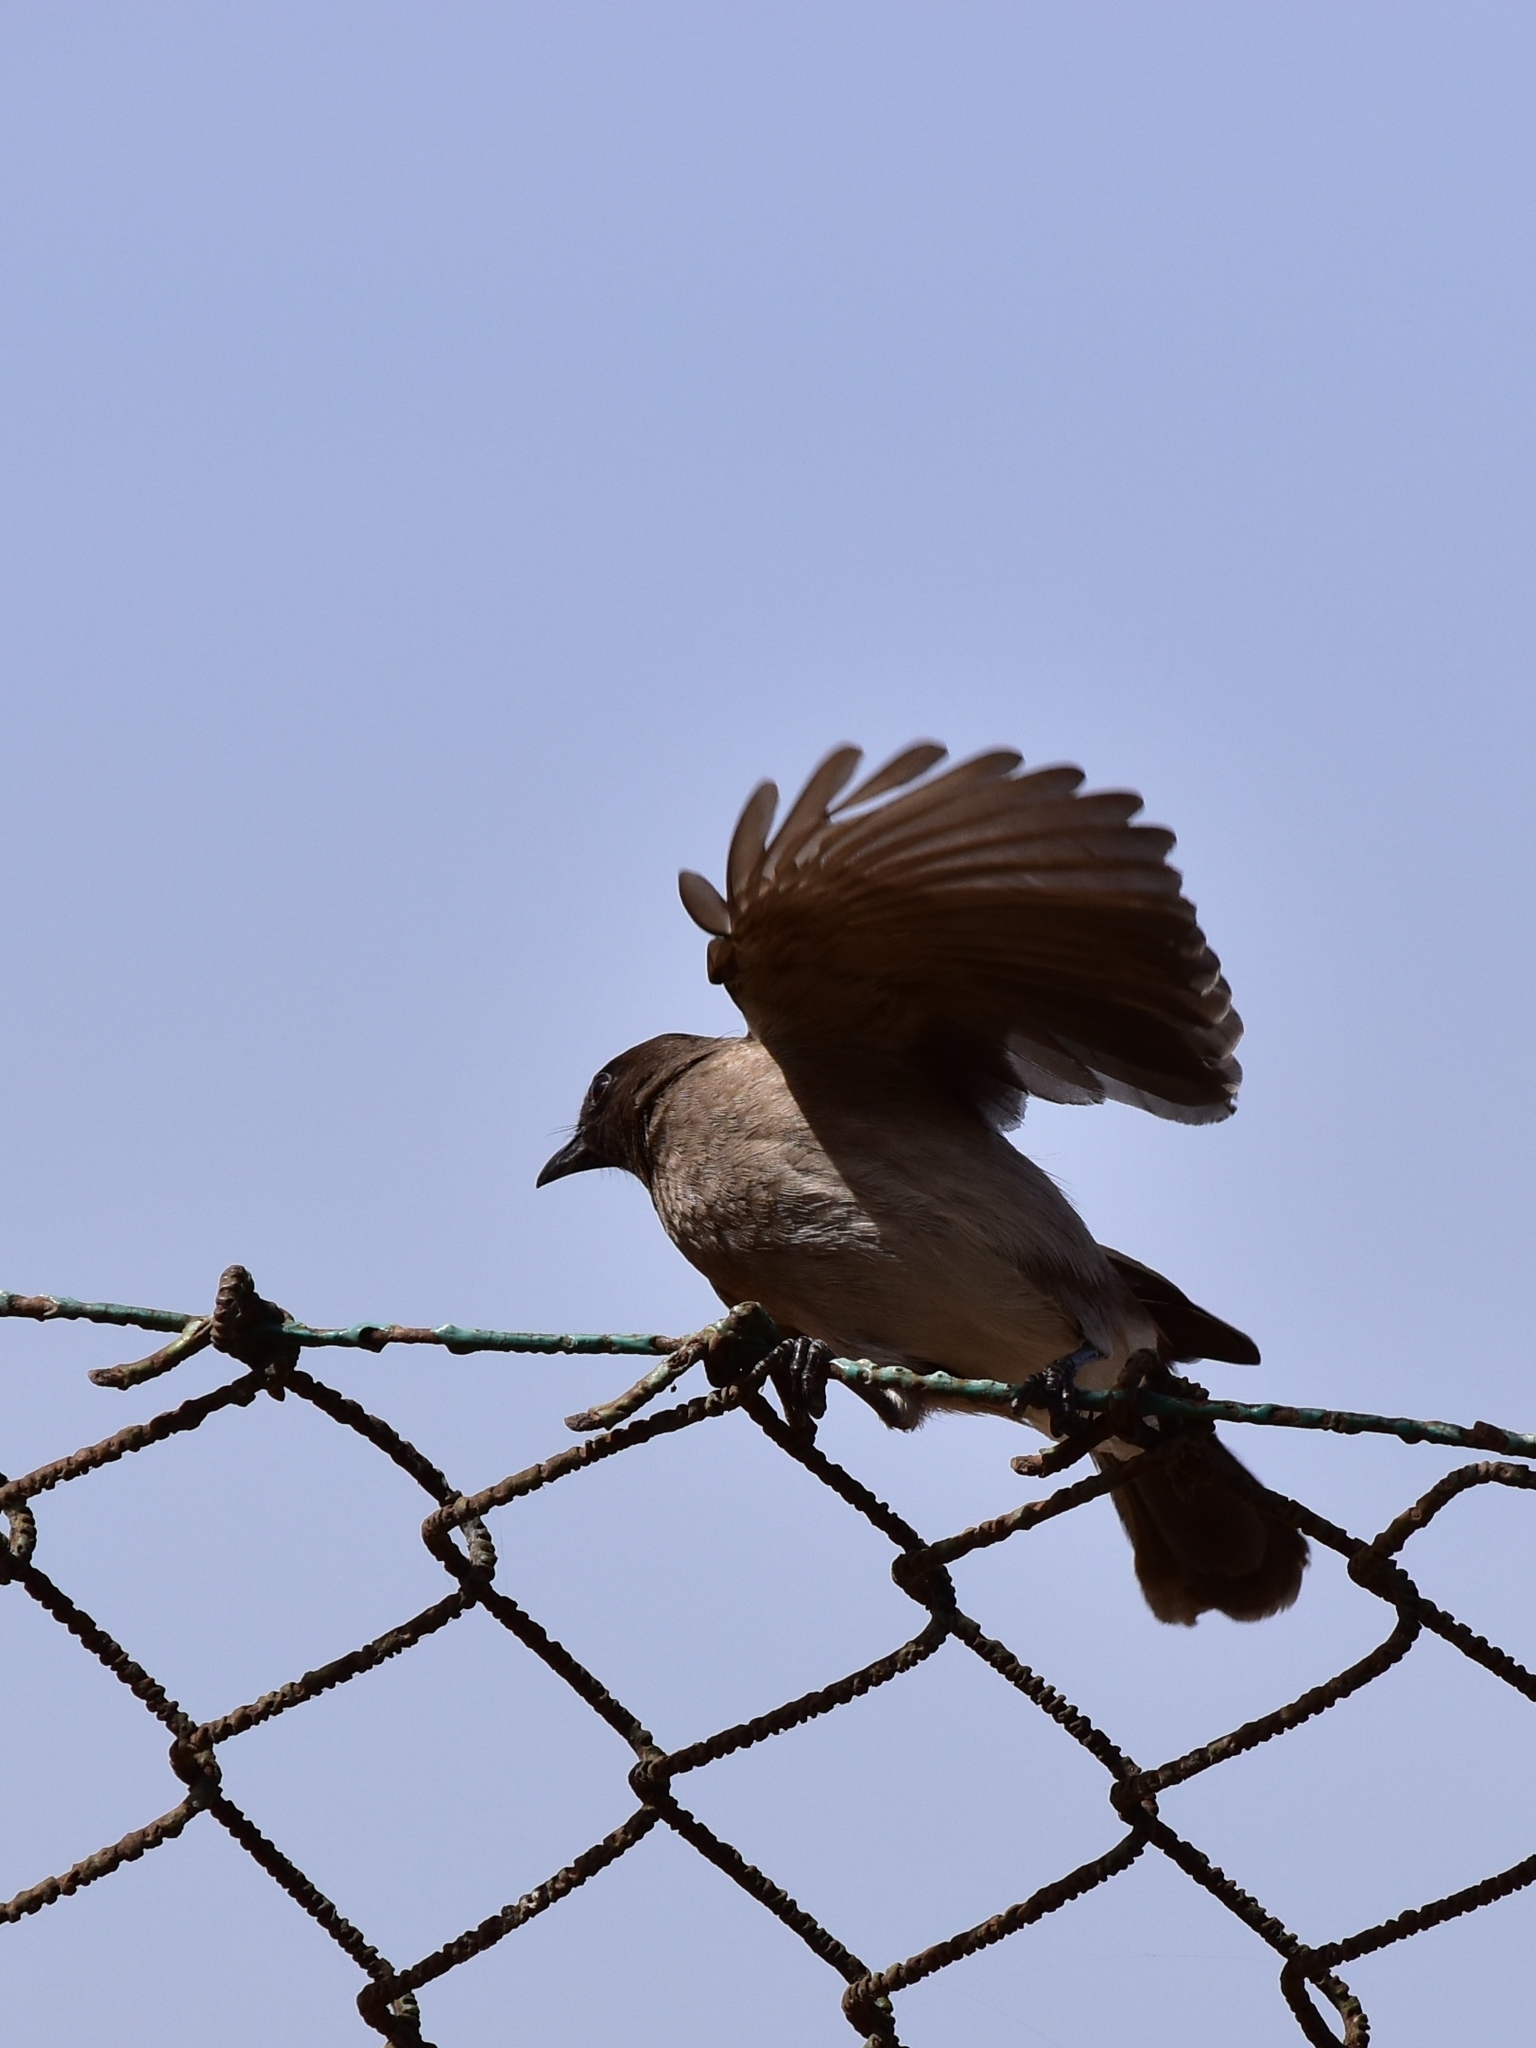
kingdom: Animalia
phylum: Chordata
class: Aves
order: Passeriformes
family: Pycnonotidae
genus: Pycnonotus
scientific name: Pycnonotus barbatus
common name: Common bulbul
